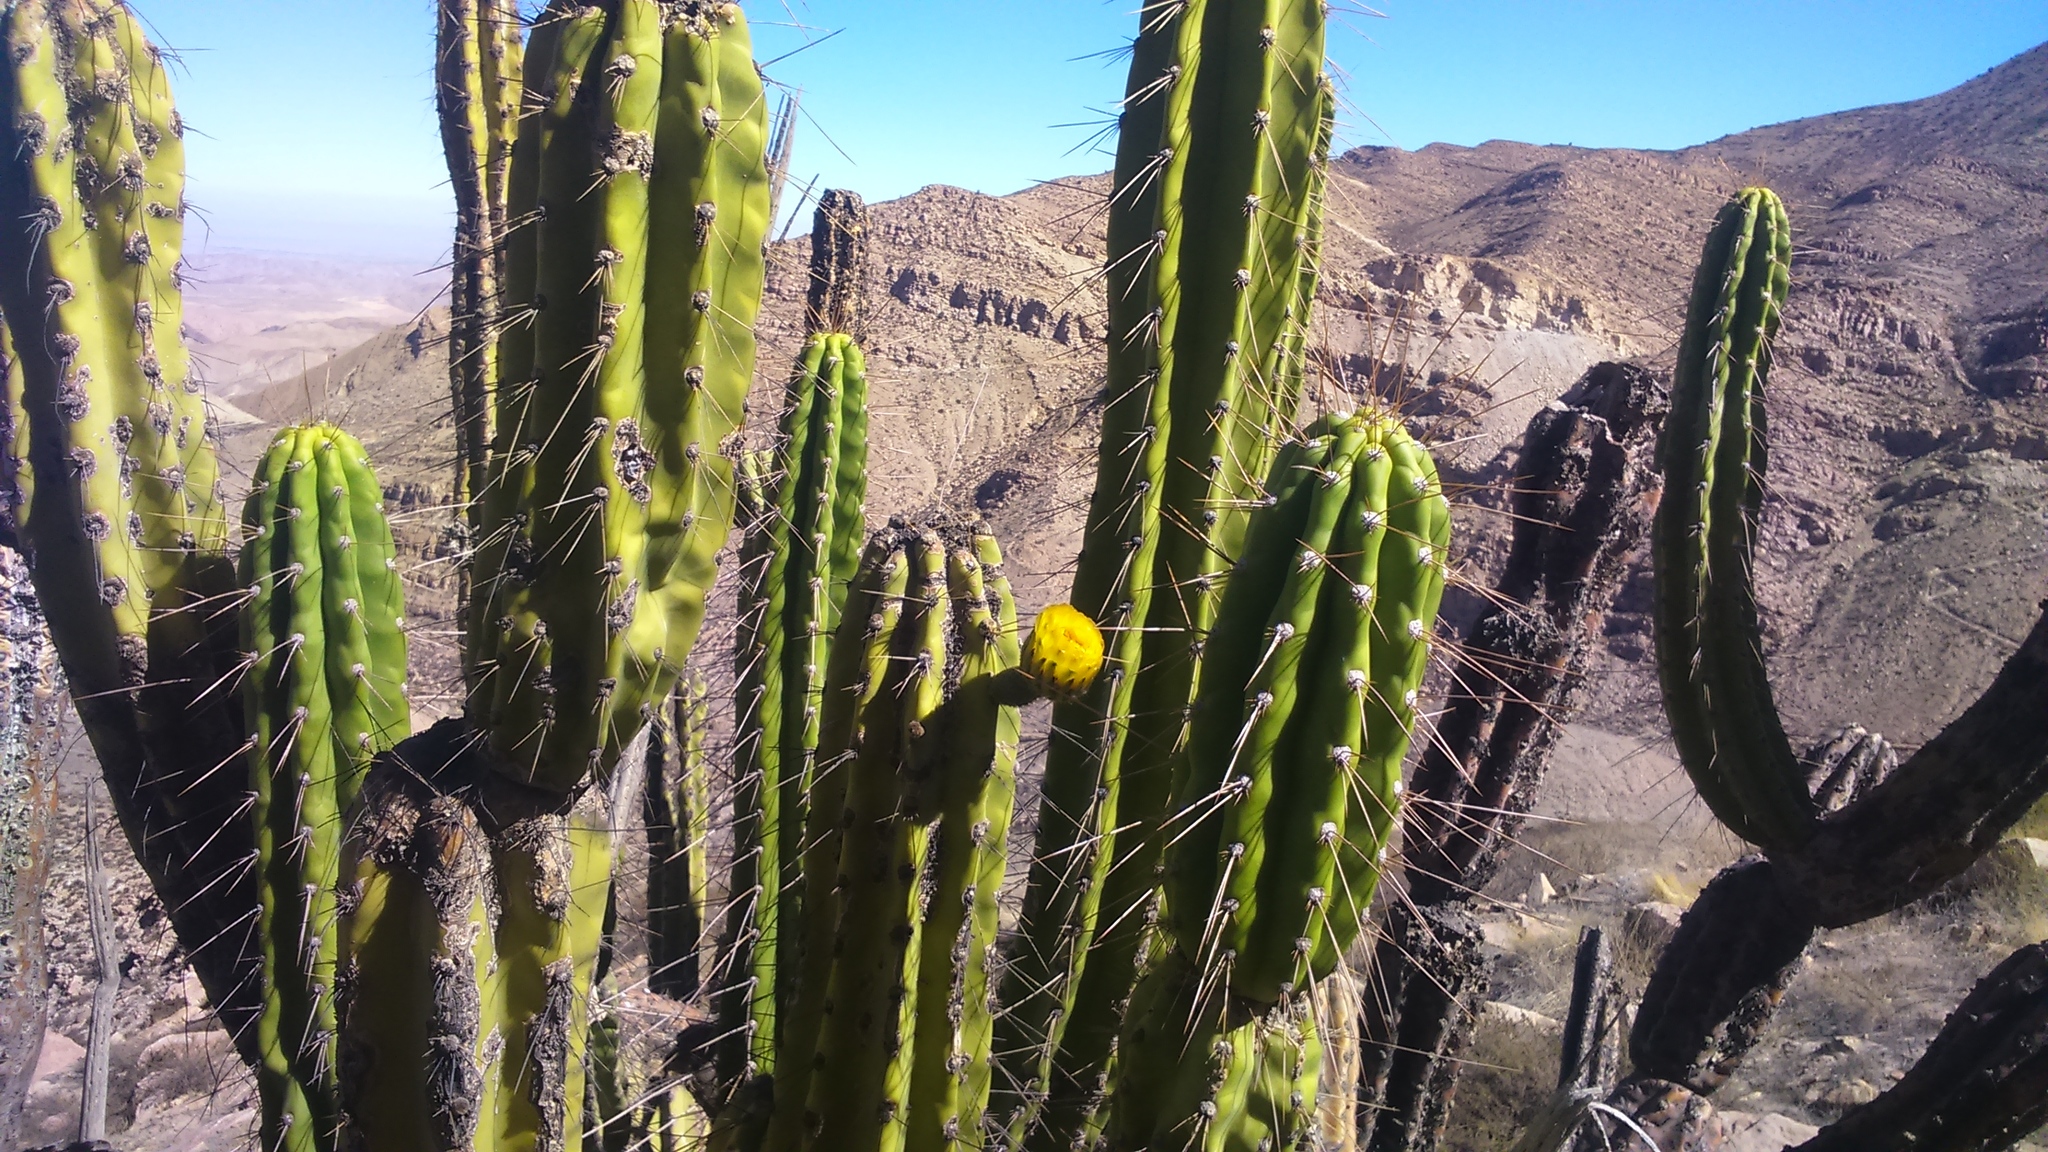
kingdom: Plantae
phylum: Tracheophyta
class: Magnoliopsida
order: Caryophyllales
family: Cactaceae
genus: Corryocactus
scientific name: Corryocactus brevistylus
